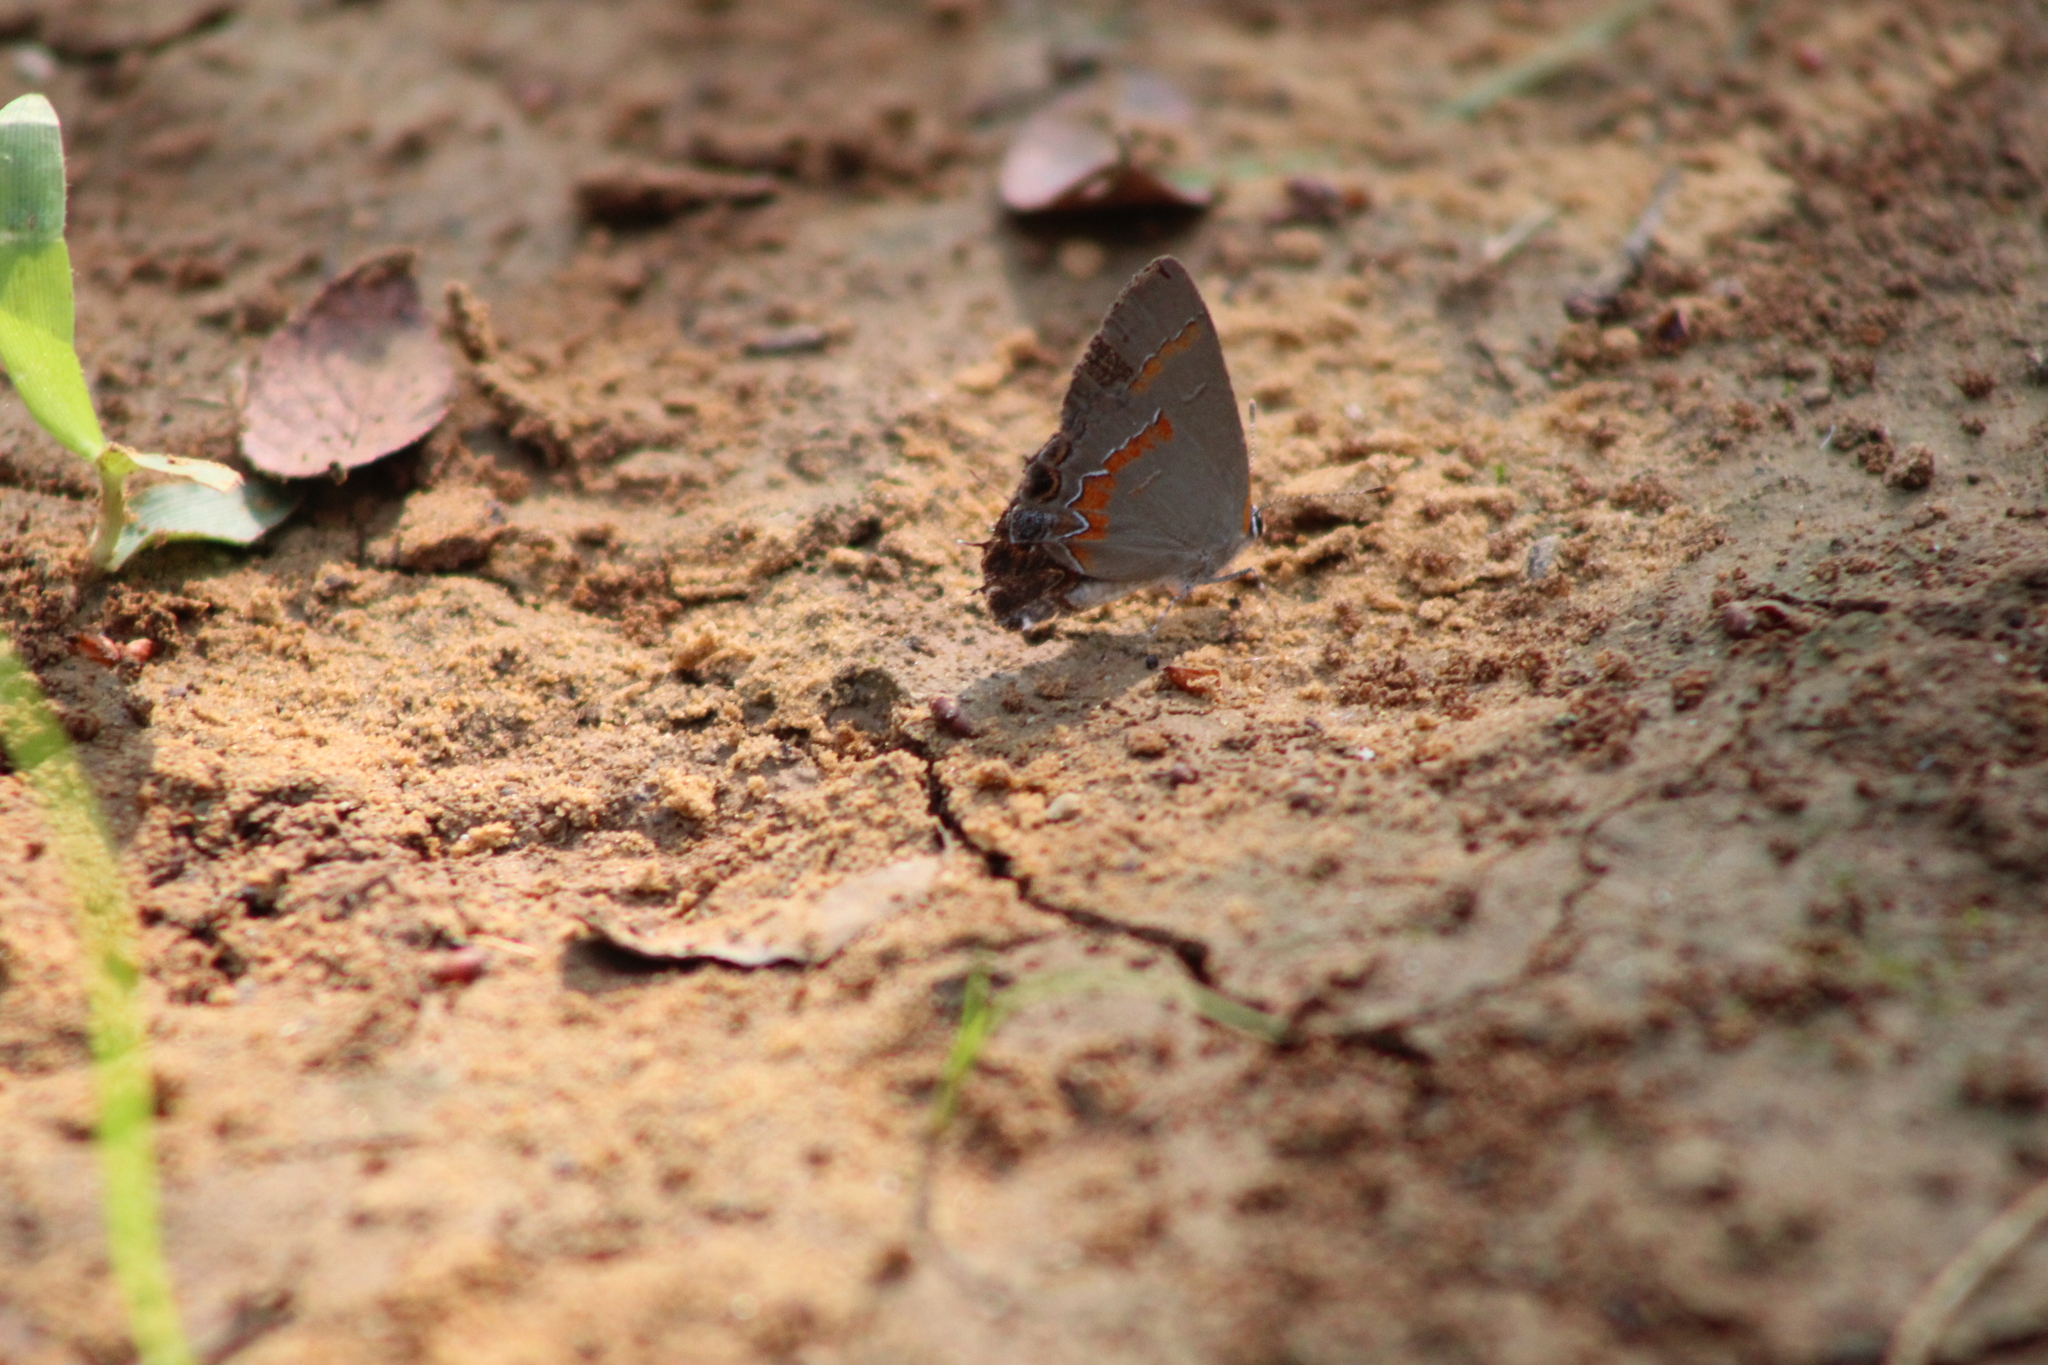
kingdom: Animalia
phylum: Arthropoda
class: Insecta
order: Lepidoptera
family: Lycaenidae
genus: Calycopis
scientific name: Calycopis cecrops
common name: Red-banded hairstreak
